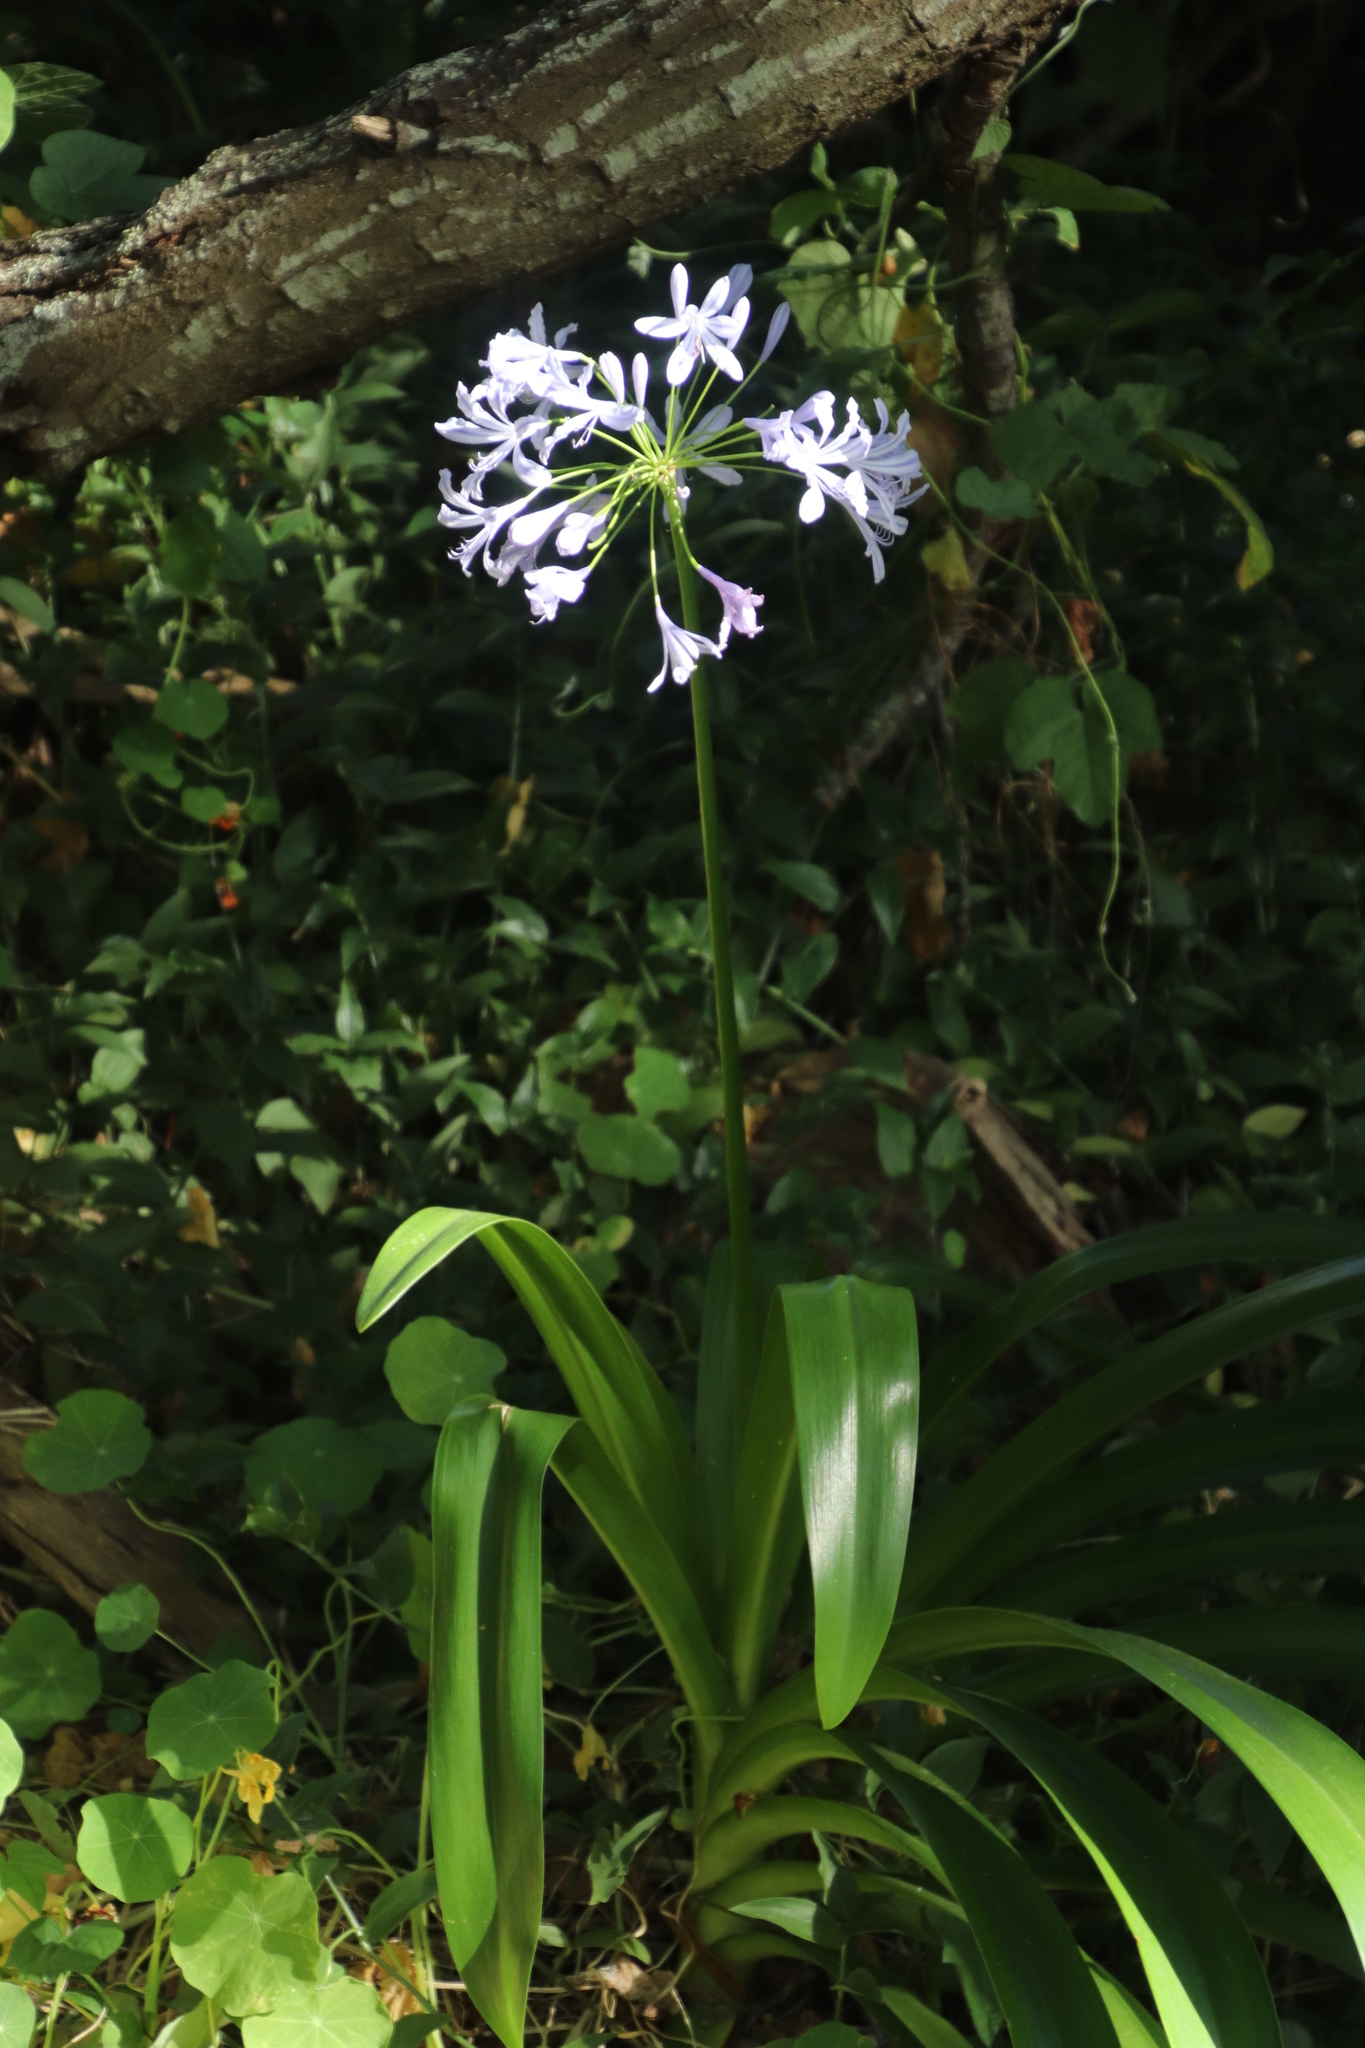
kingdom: Plantae
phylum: Tracheophyta
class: Liliopsida
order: Asparagales
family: Amaryllidaceae
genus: Agapanthus
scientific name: Agapanthus praecox
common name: African-lily
